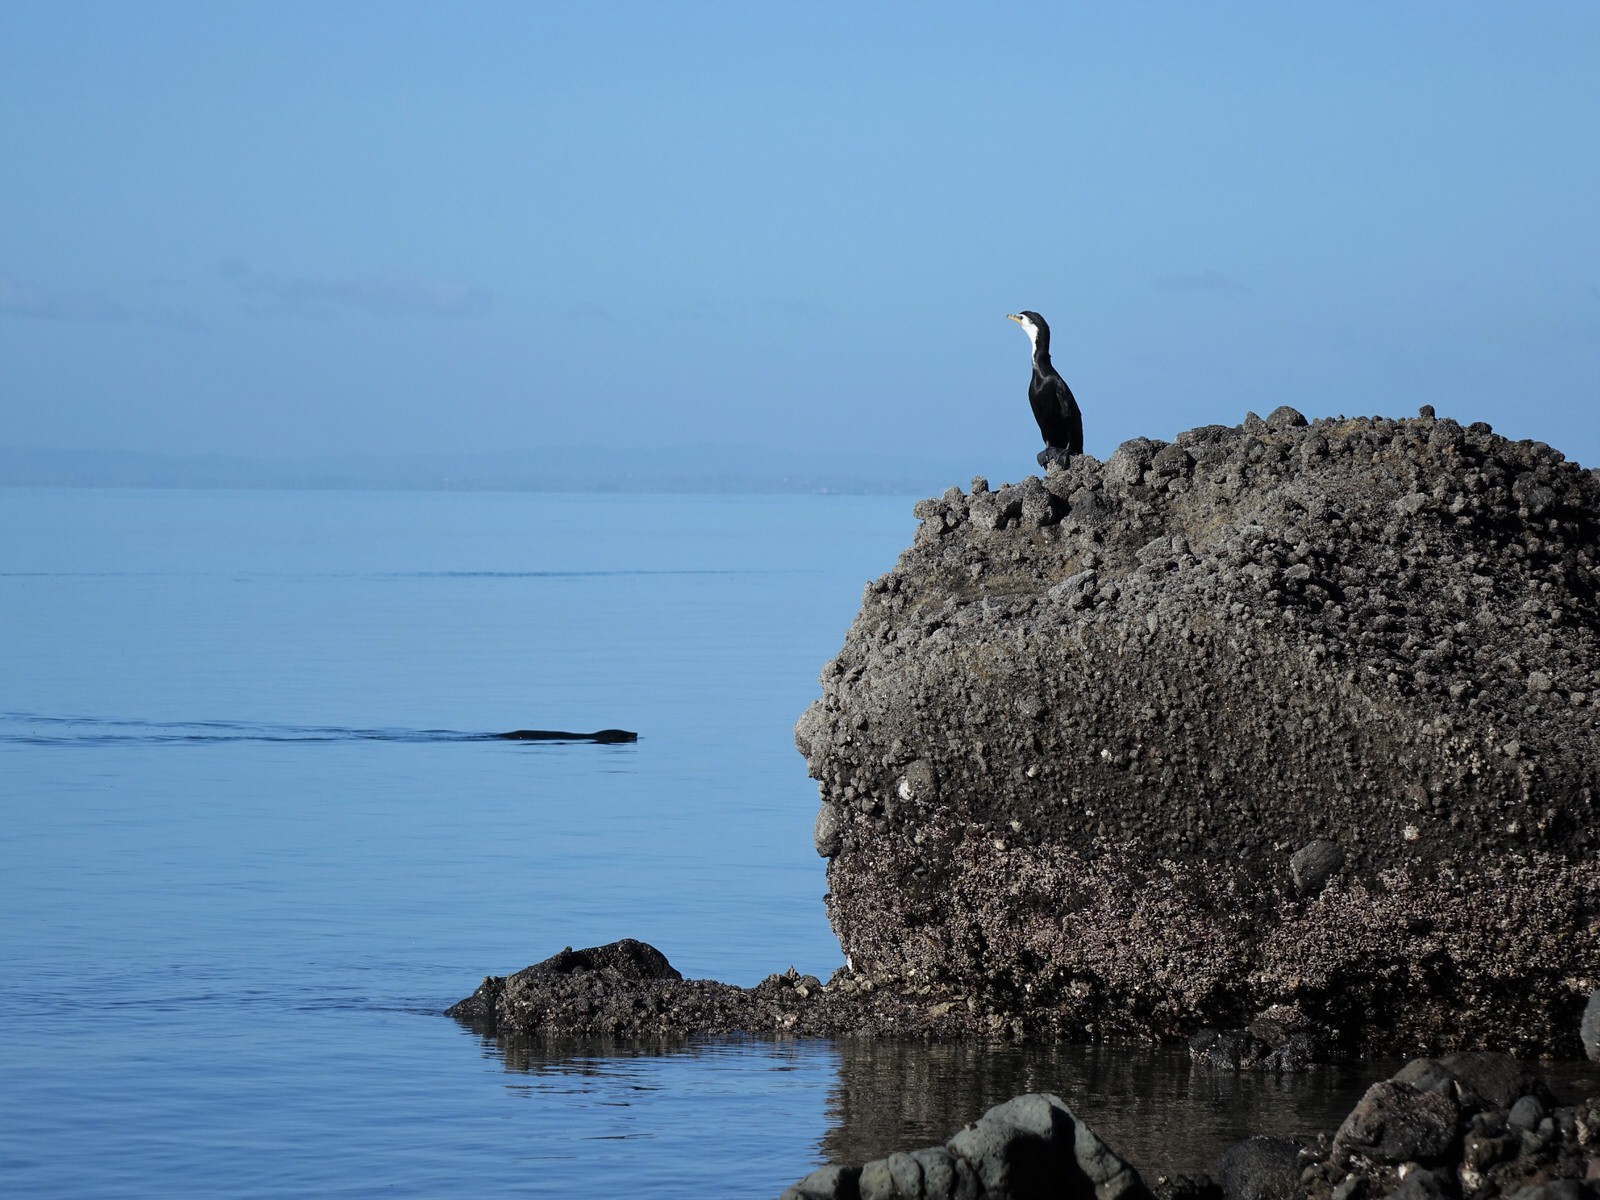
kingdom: Animalia
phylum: Chordata
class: Aves
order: Suliformes
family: Phalacrocoracidae
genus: Microcarbo
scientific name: Microcarbo melanoleucos
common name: Little pied cormorant
